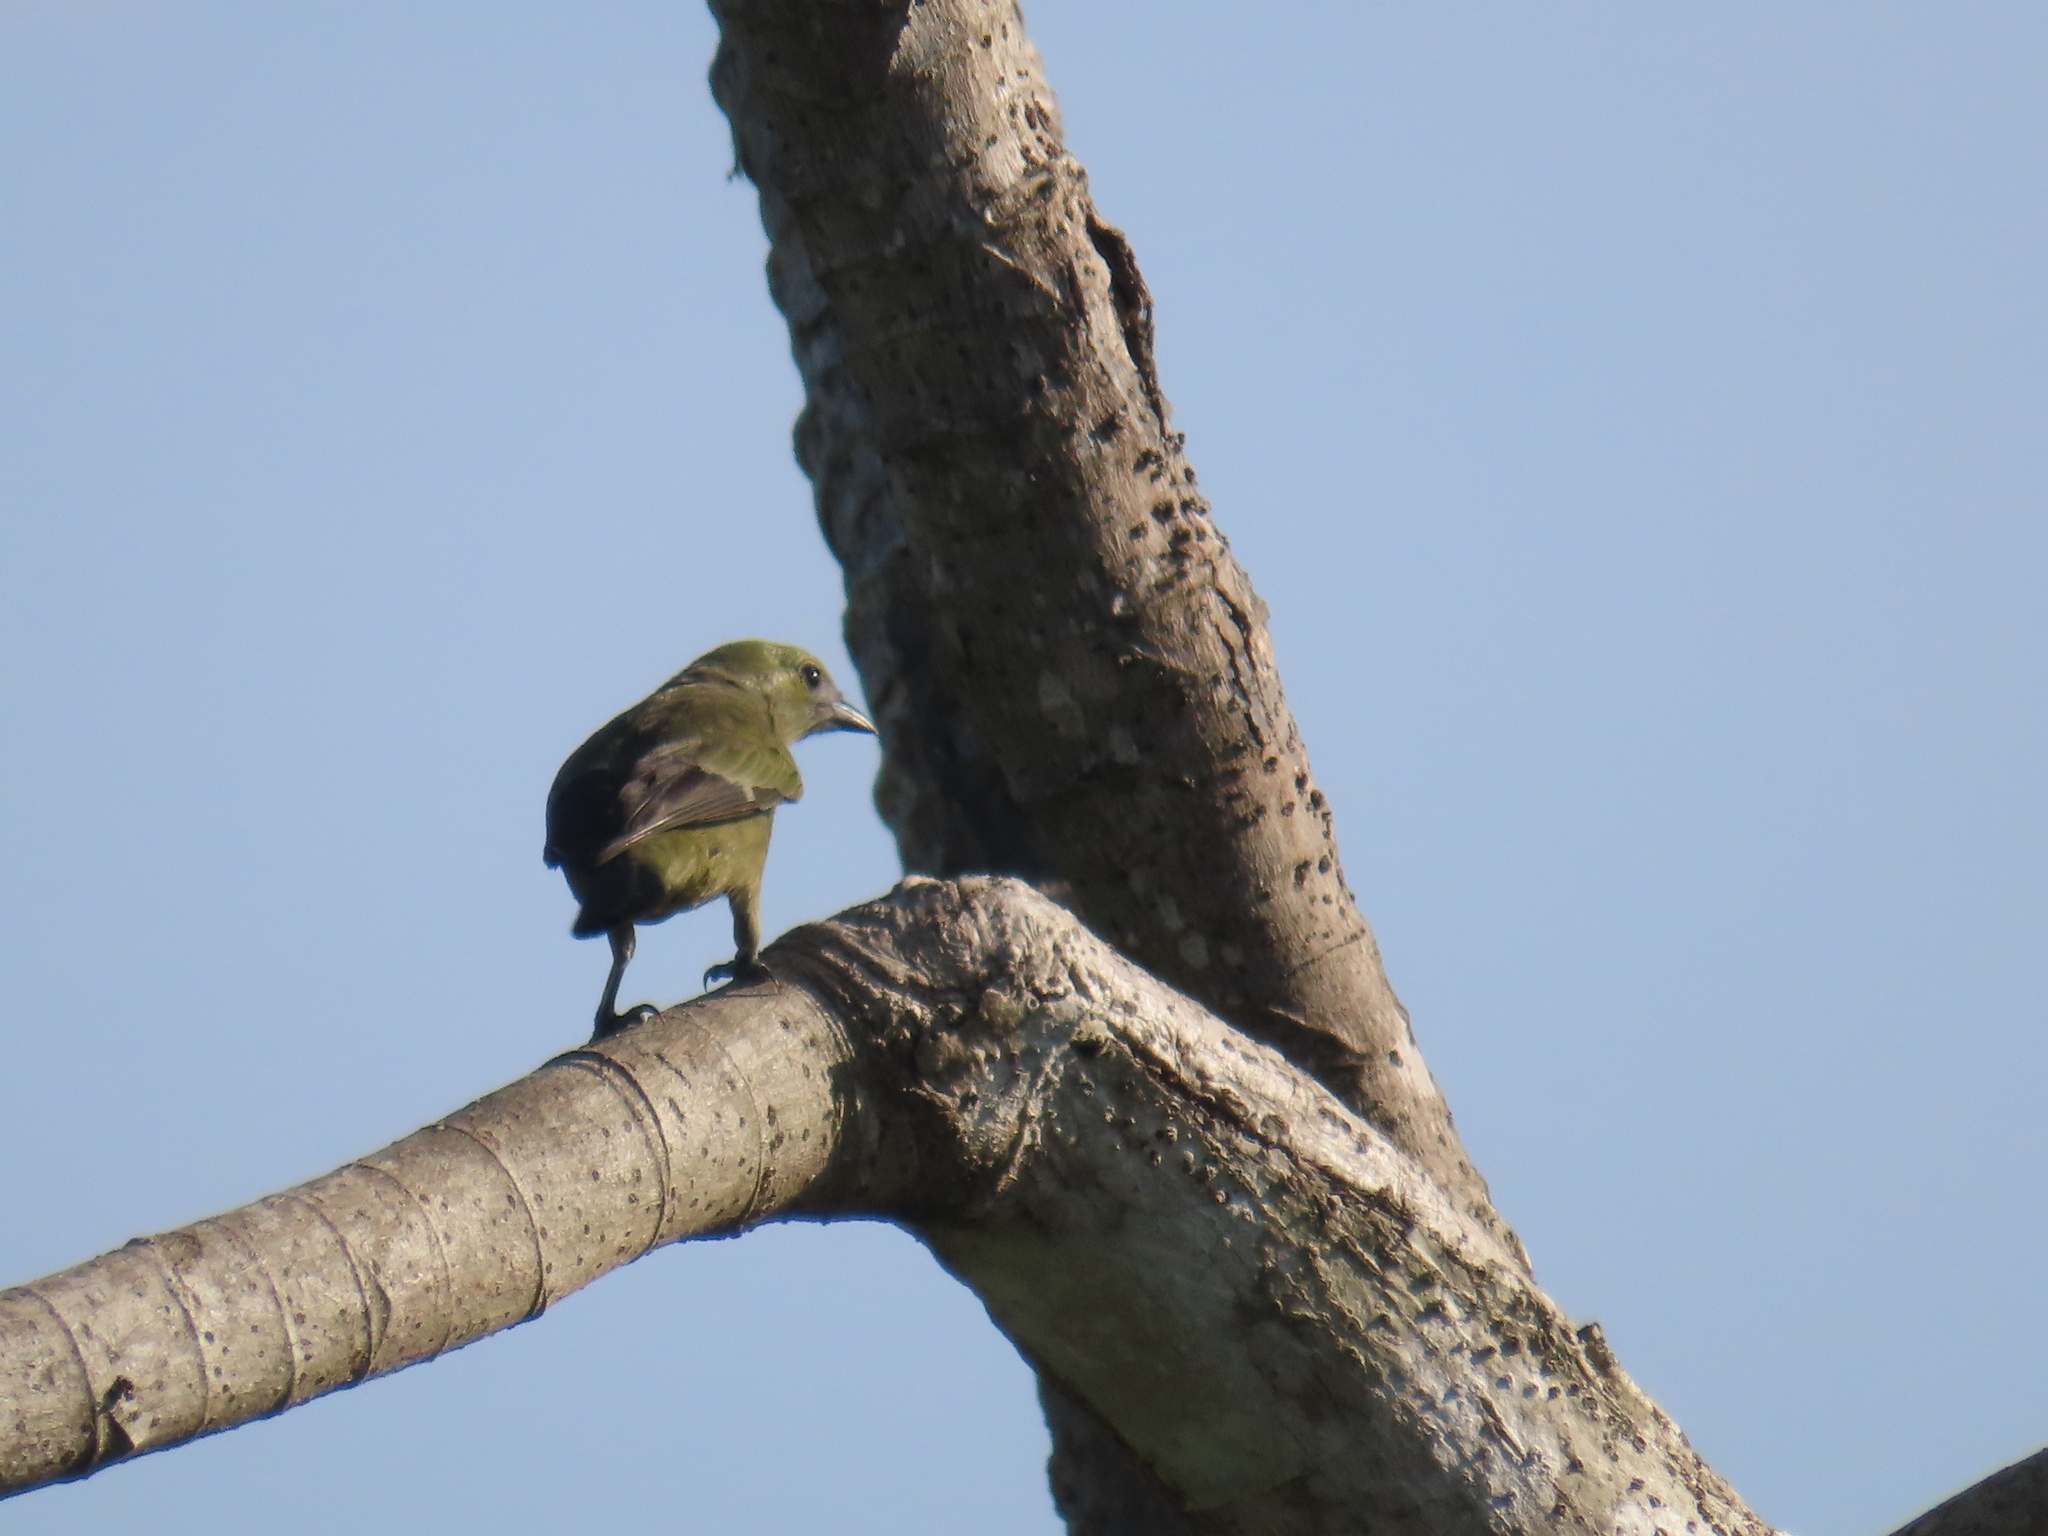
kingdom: Animalia
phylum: Chordata
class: Aves
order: Passeriformes
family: Thraupidae
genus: Thraupis
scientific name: Thraupis palmarum
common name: Palm tanager
